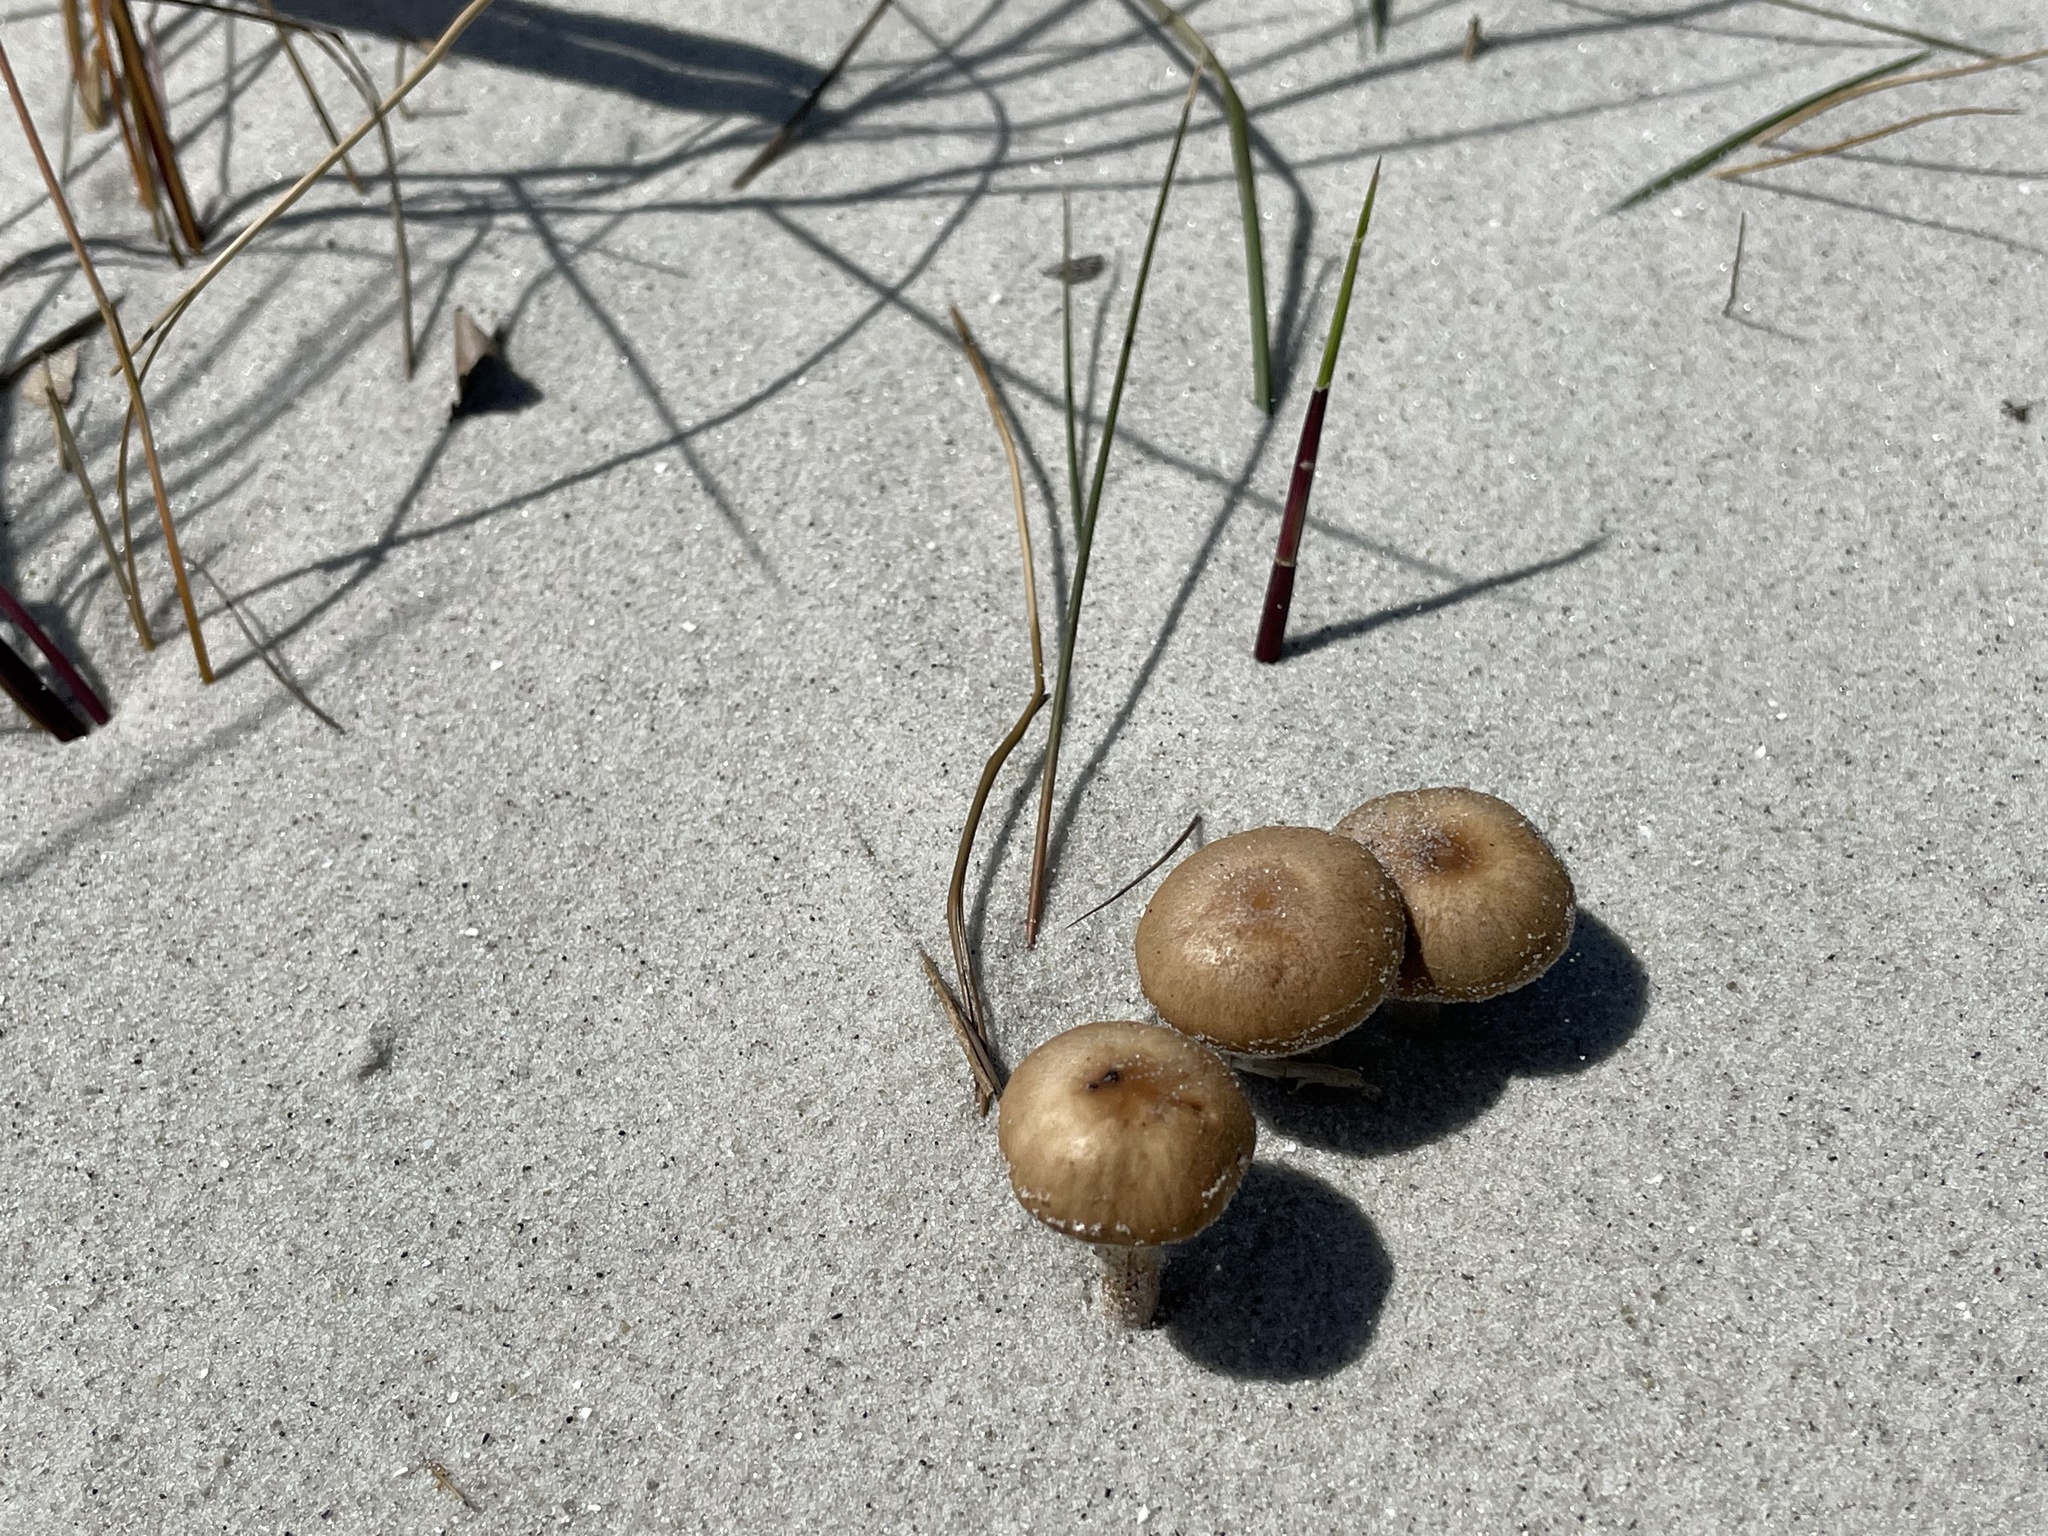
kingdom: Fungi
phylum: Basidiomycota
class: Agaricomycetes
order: Agaricales
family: Psathyrellaceae
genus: Psathyrella
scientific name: Psathyrella ammophila
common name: Dune brittlestem
